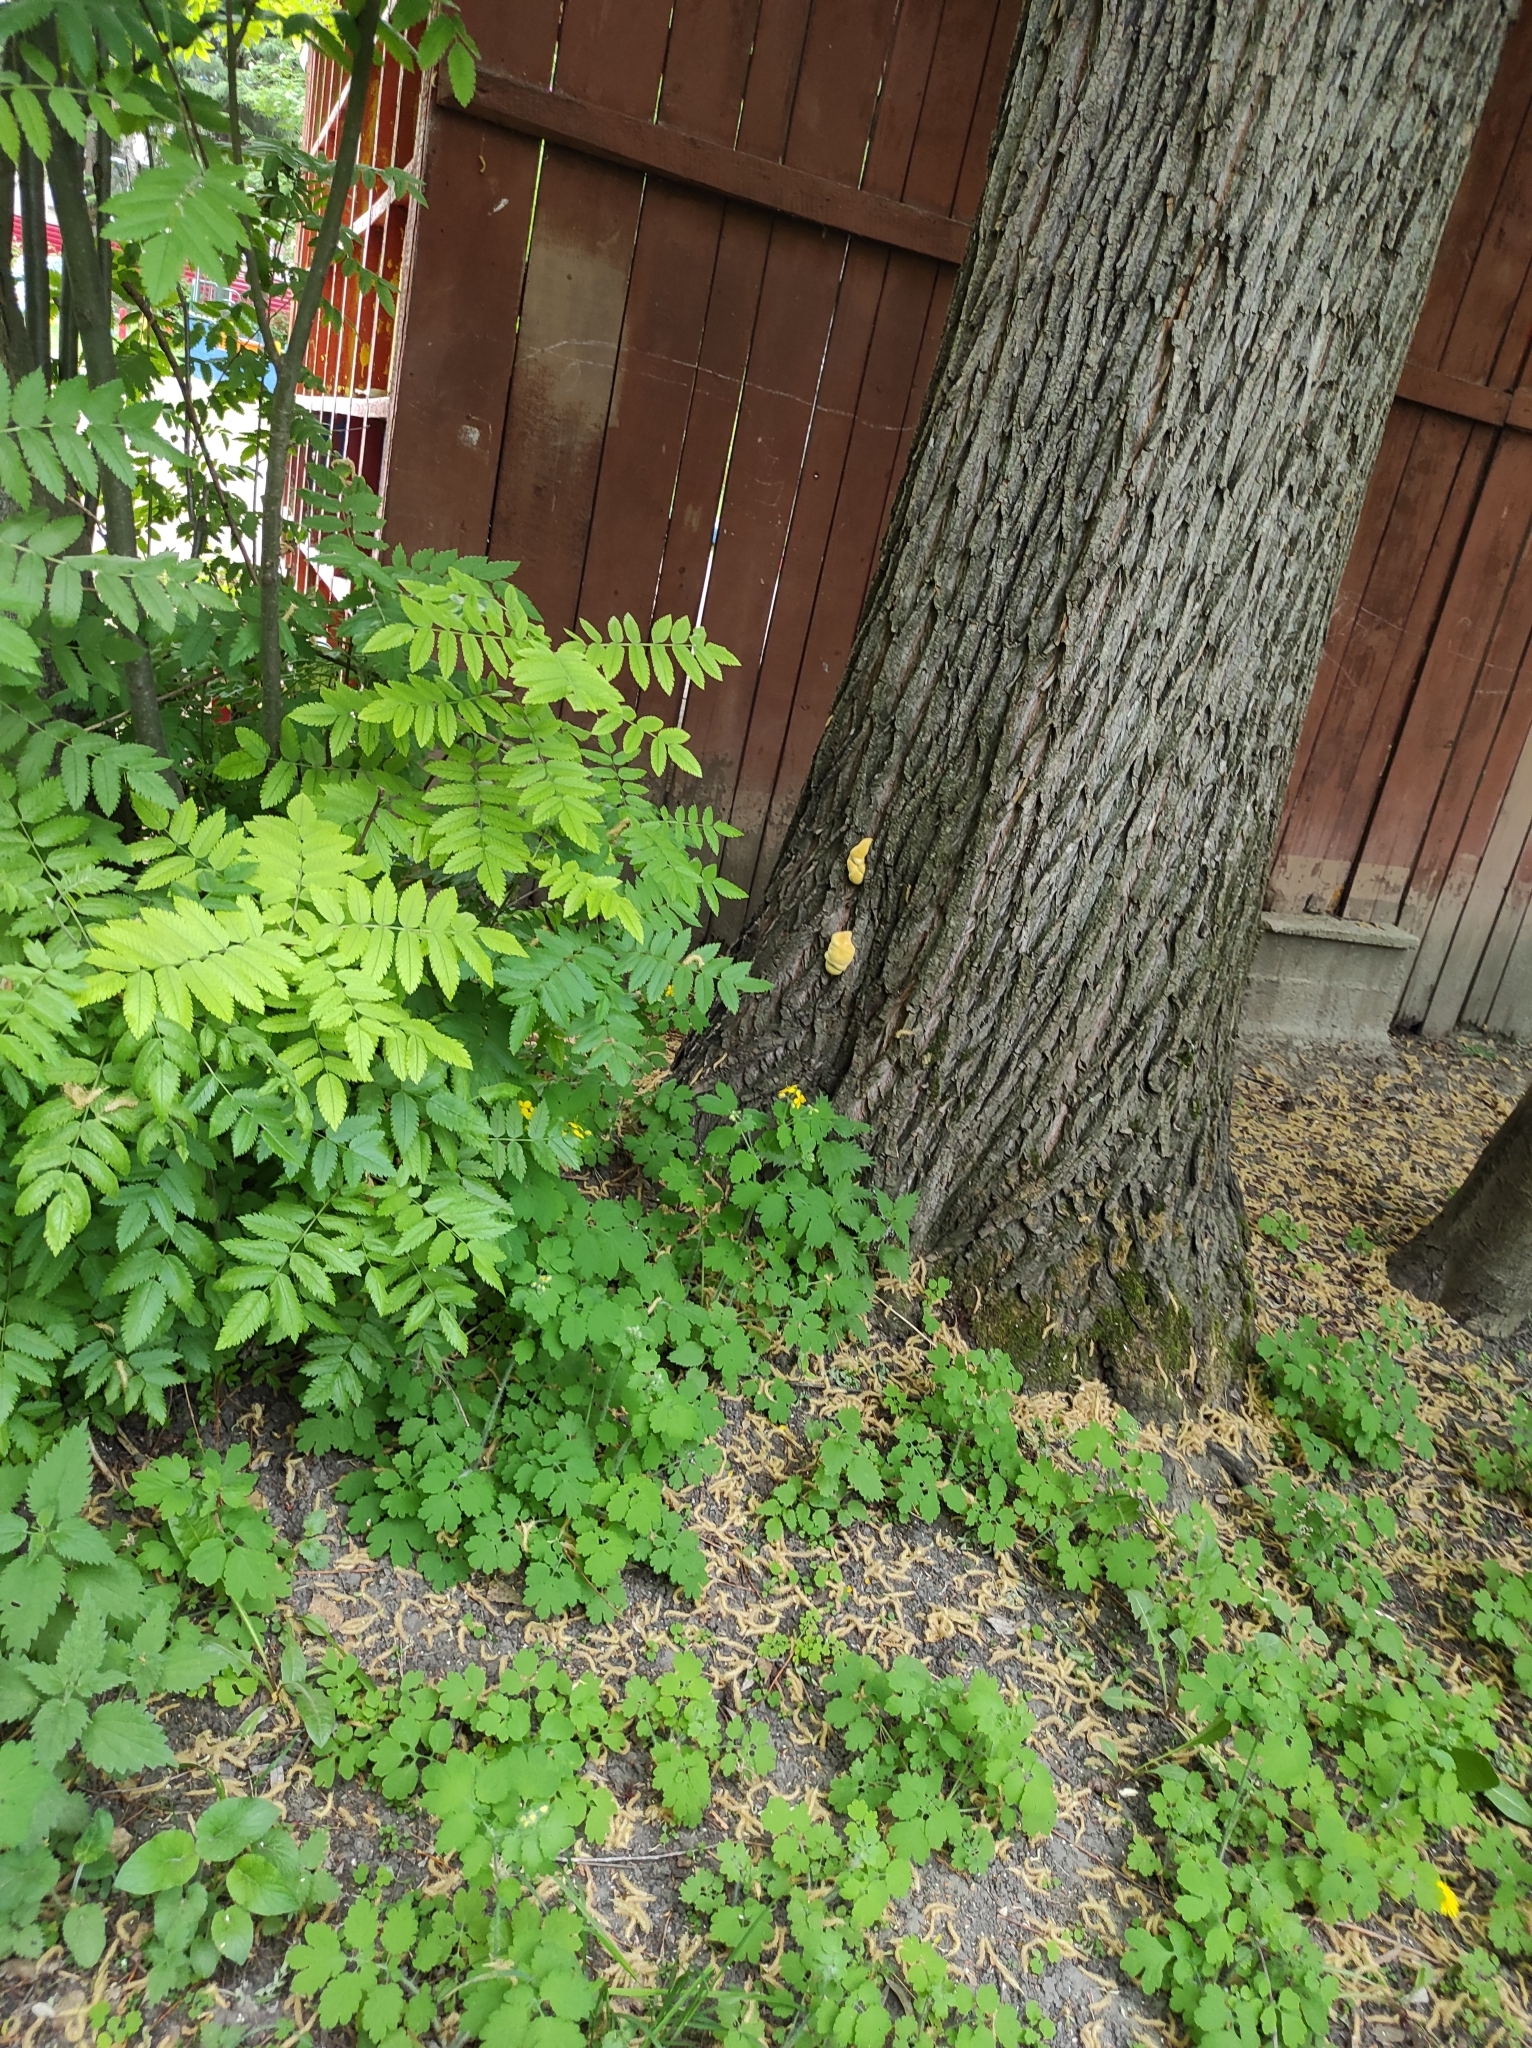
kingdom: Fungi
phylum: Basidiomycota
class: Agaricomycetes
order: Polyporales
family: Laetiporaceae
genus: Laetiporus
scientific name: Laetiporus sulphureus
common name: Chicken of the woods
